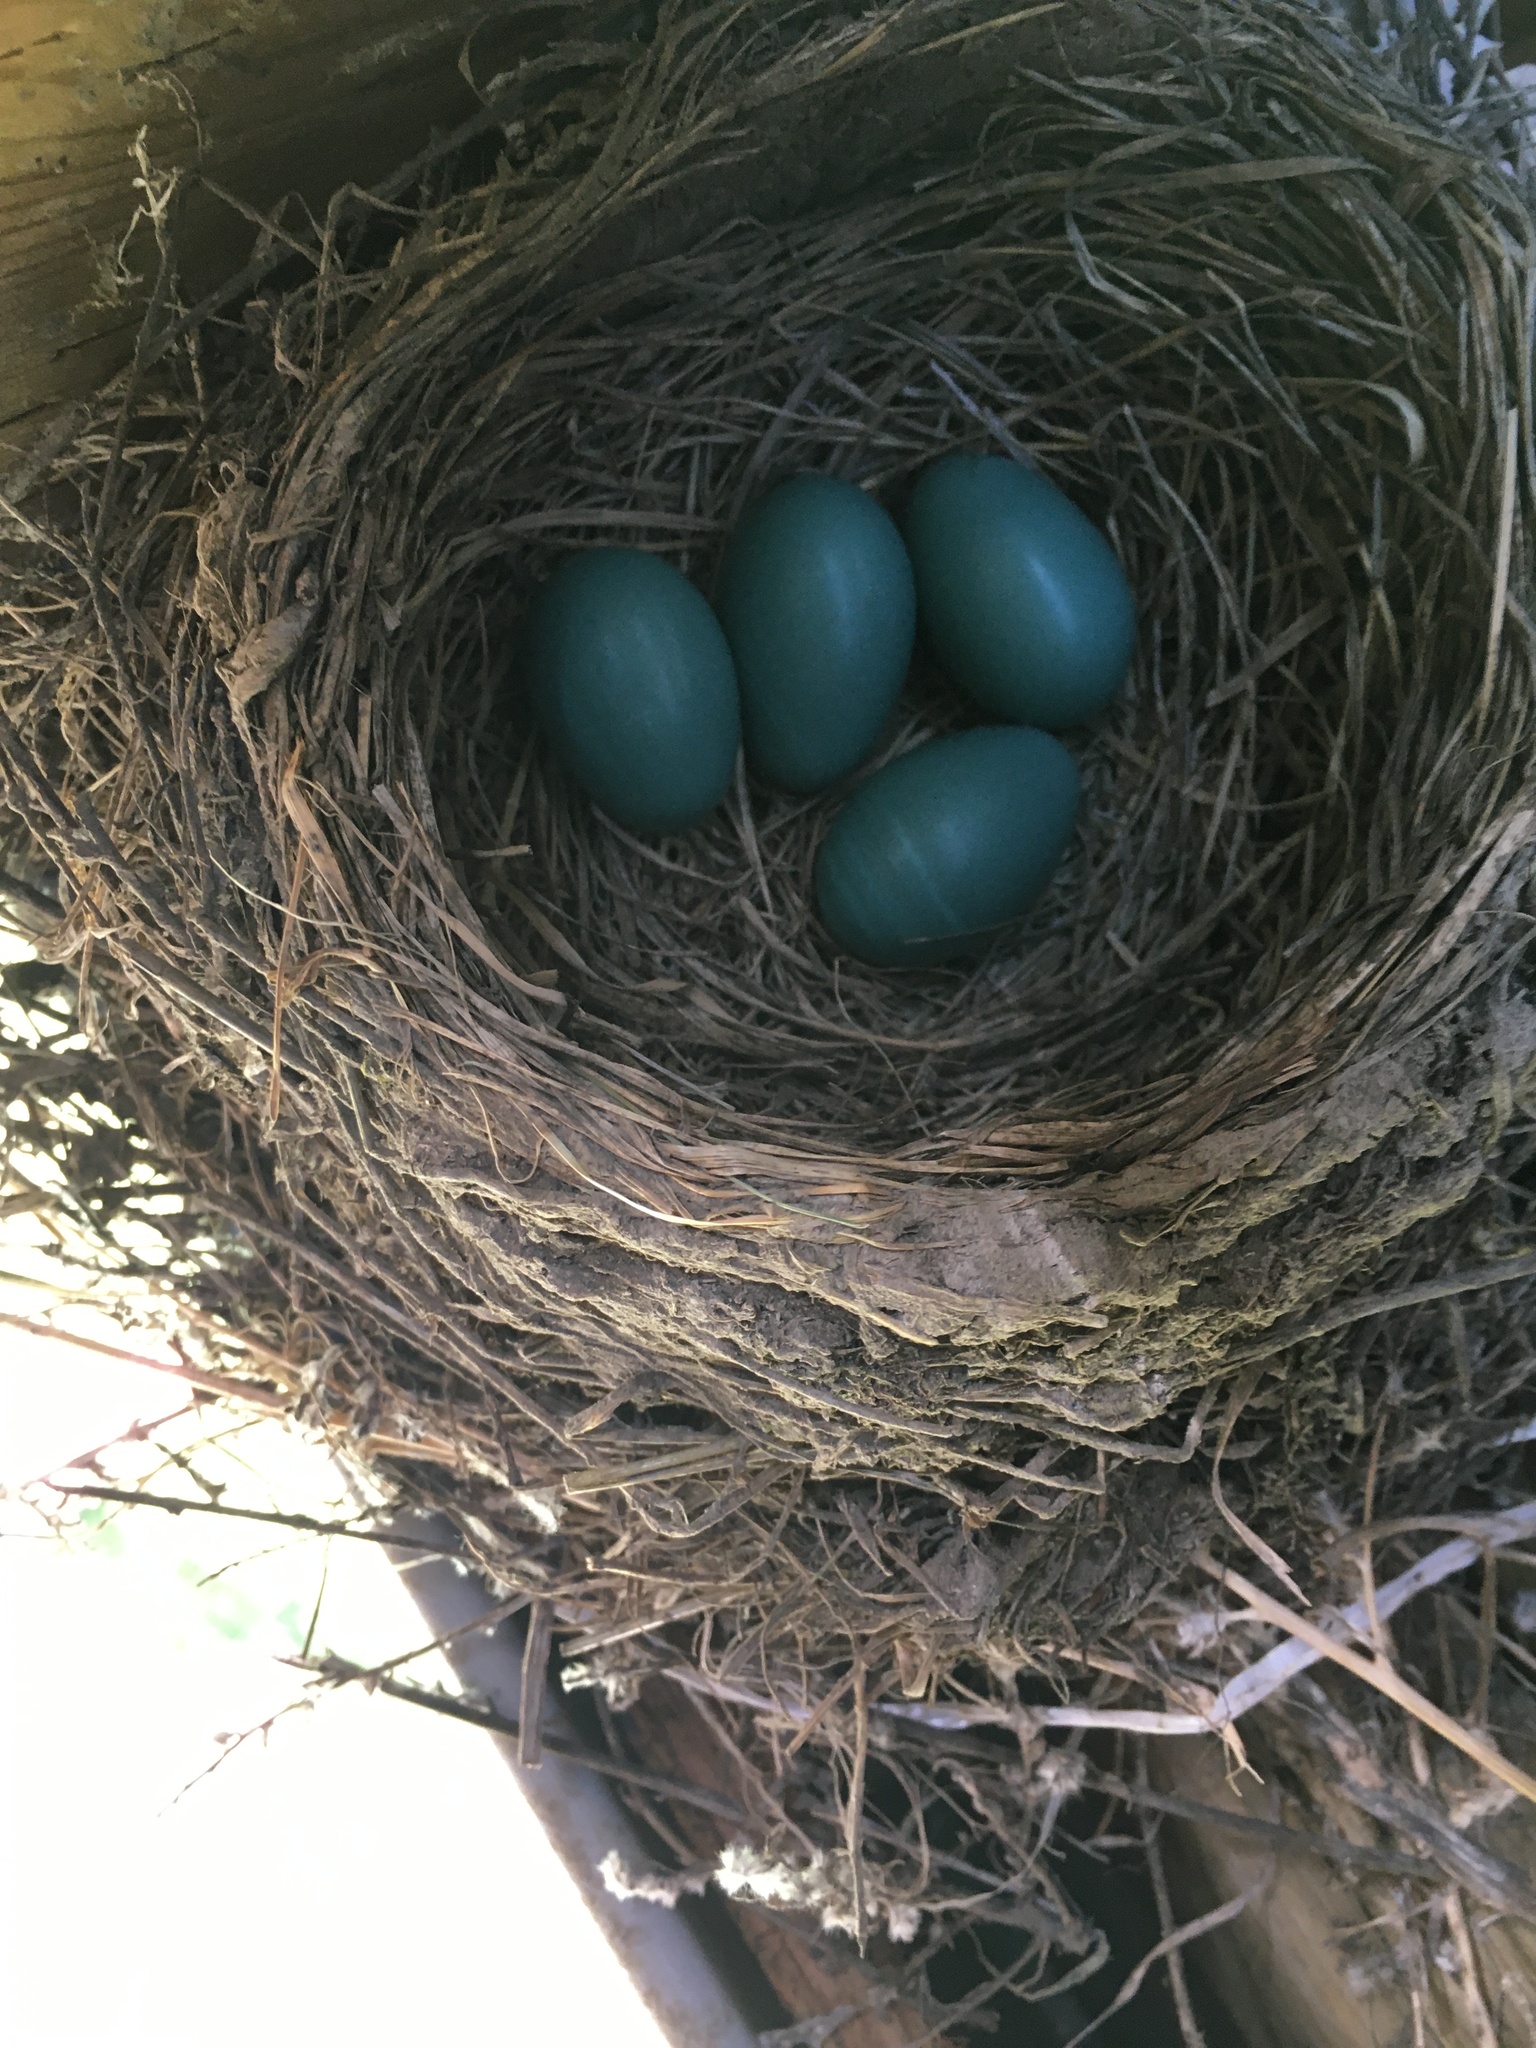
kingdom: Animalia
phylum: Chordata
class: Aves
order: Passeriformes
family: Turdidae
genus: Turdus
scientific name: Turdus migratorius
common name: American robin
